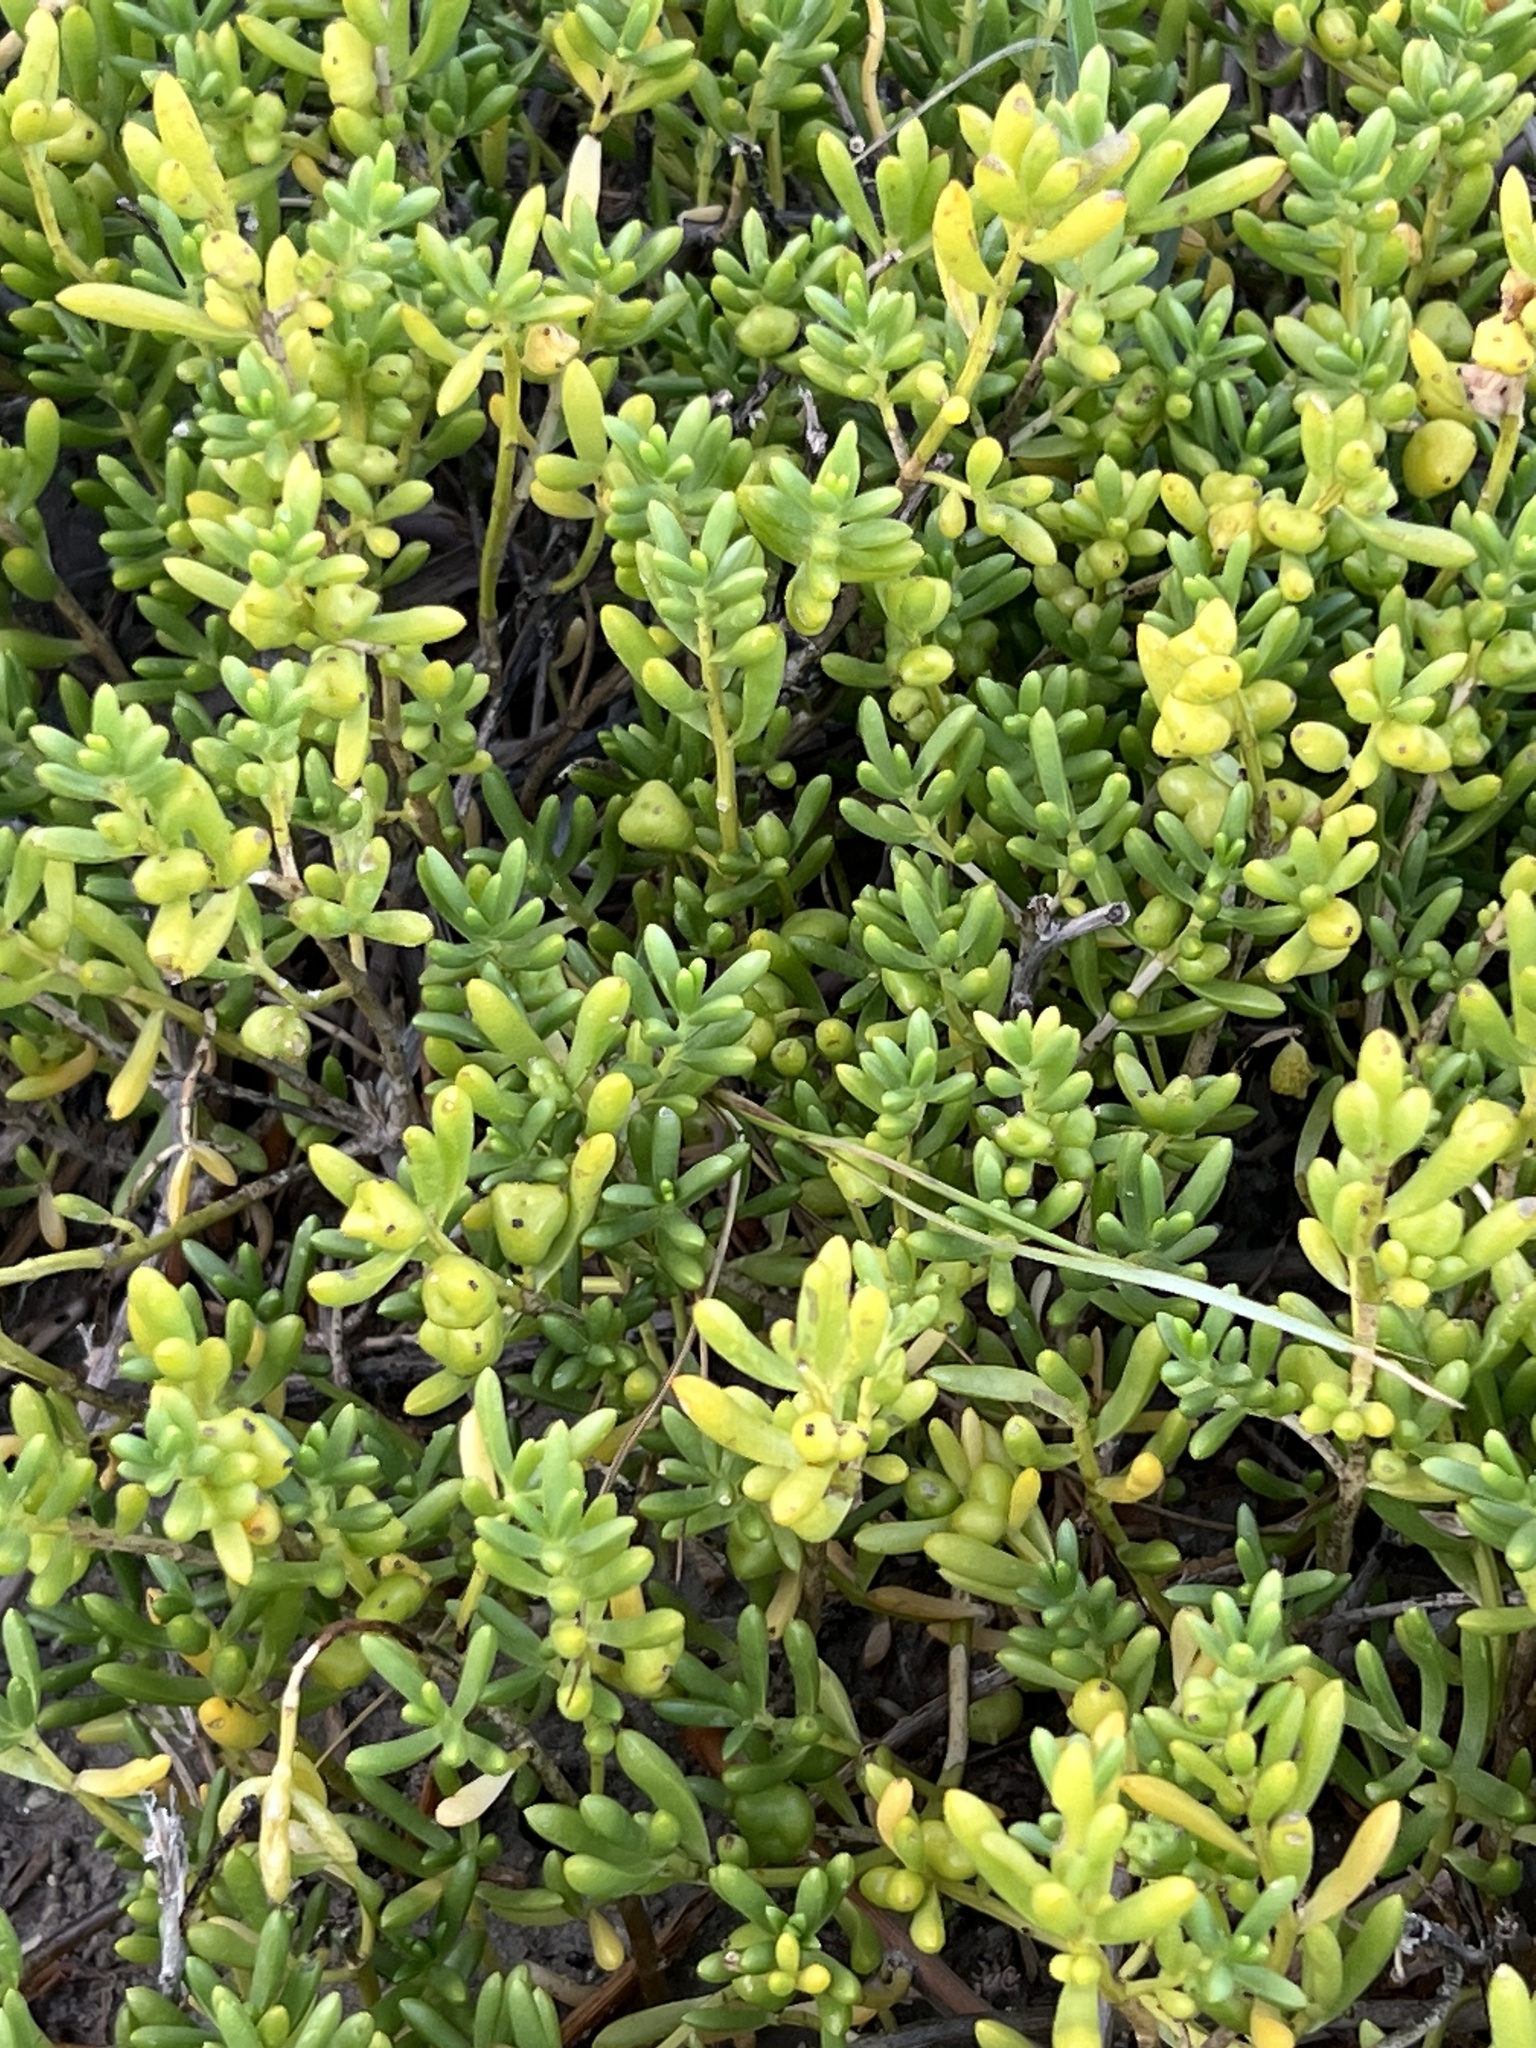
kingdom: Plantae
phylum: Tracheophyta
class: Magnoliopsida
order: Brassicales
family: Bataceae
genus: Batis
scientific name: Batis maritima
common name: Turtleweed
